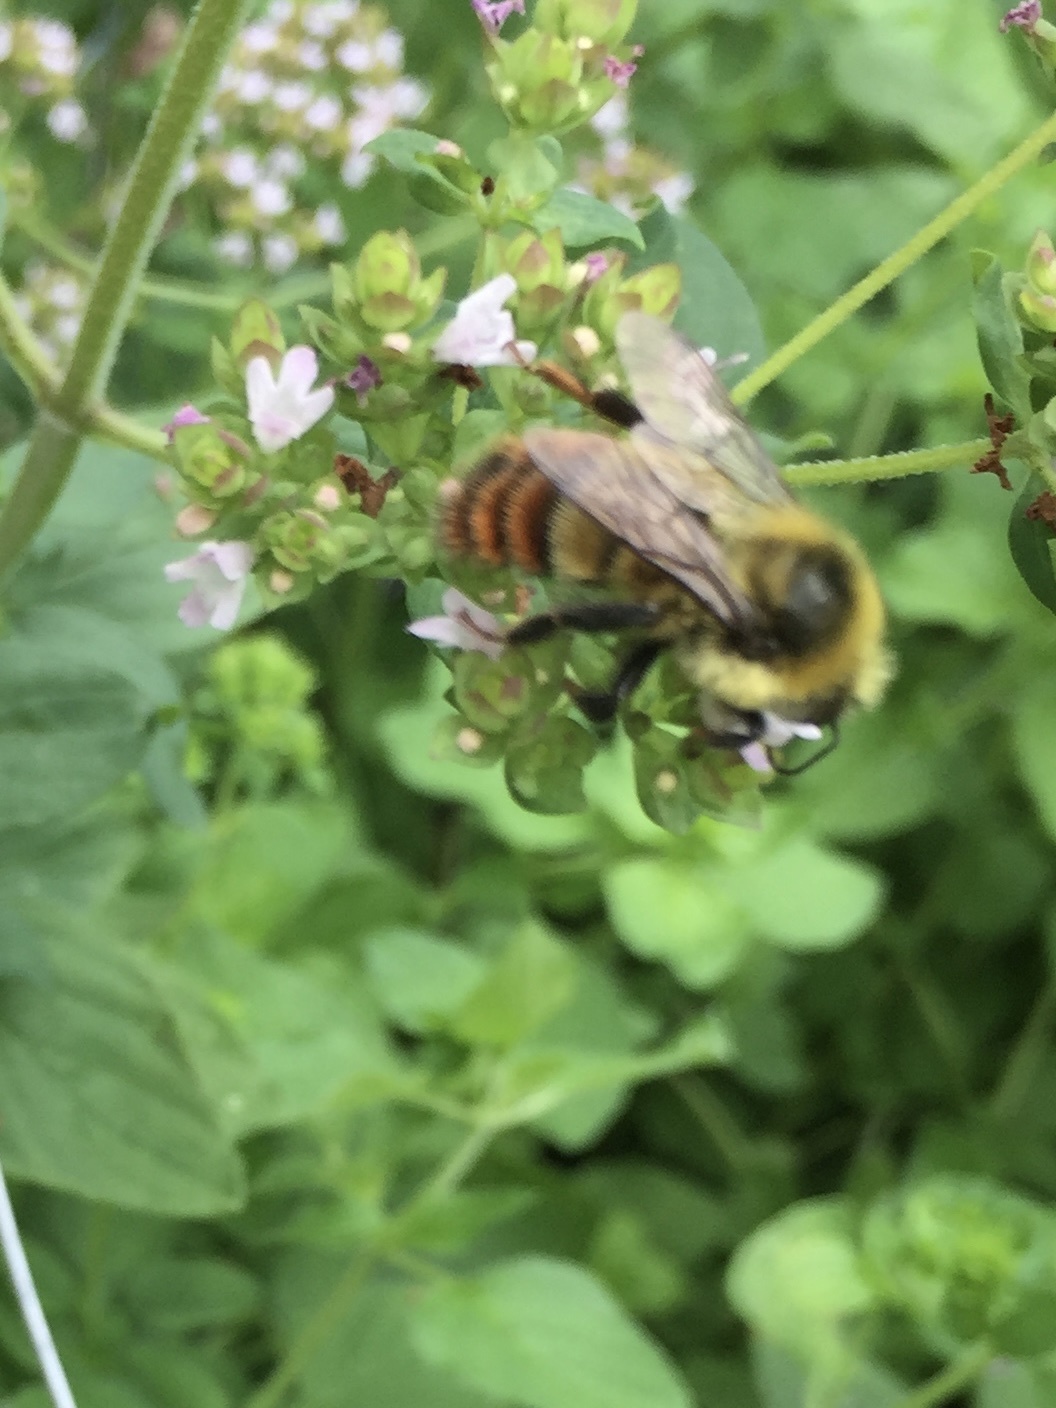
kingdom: Animalia
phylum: Arthropoda
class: Insecta
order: Hymenoptera
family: Apidae
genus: Bombus
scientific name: Bombus rufocinctus
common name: Red-belted bumble bee
